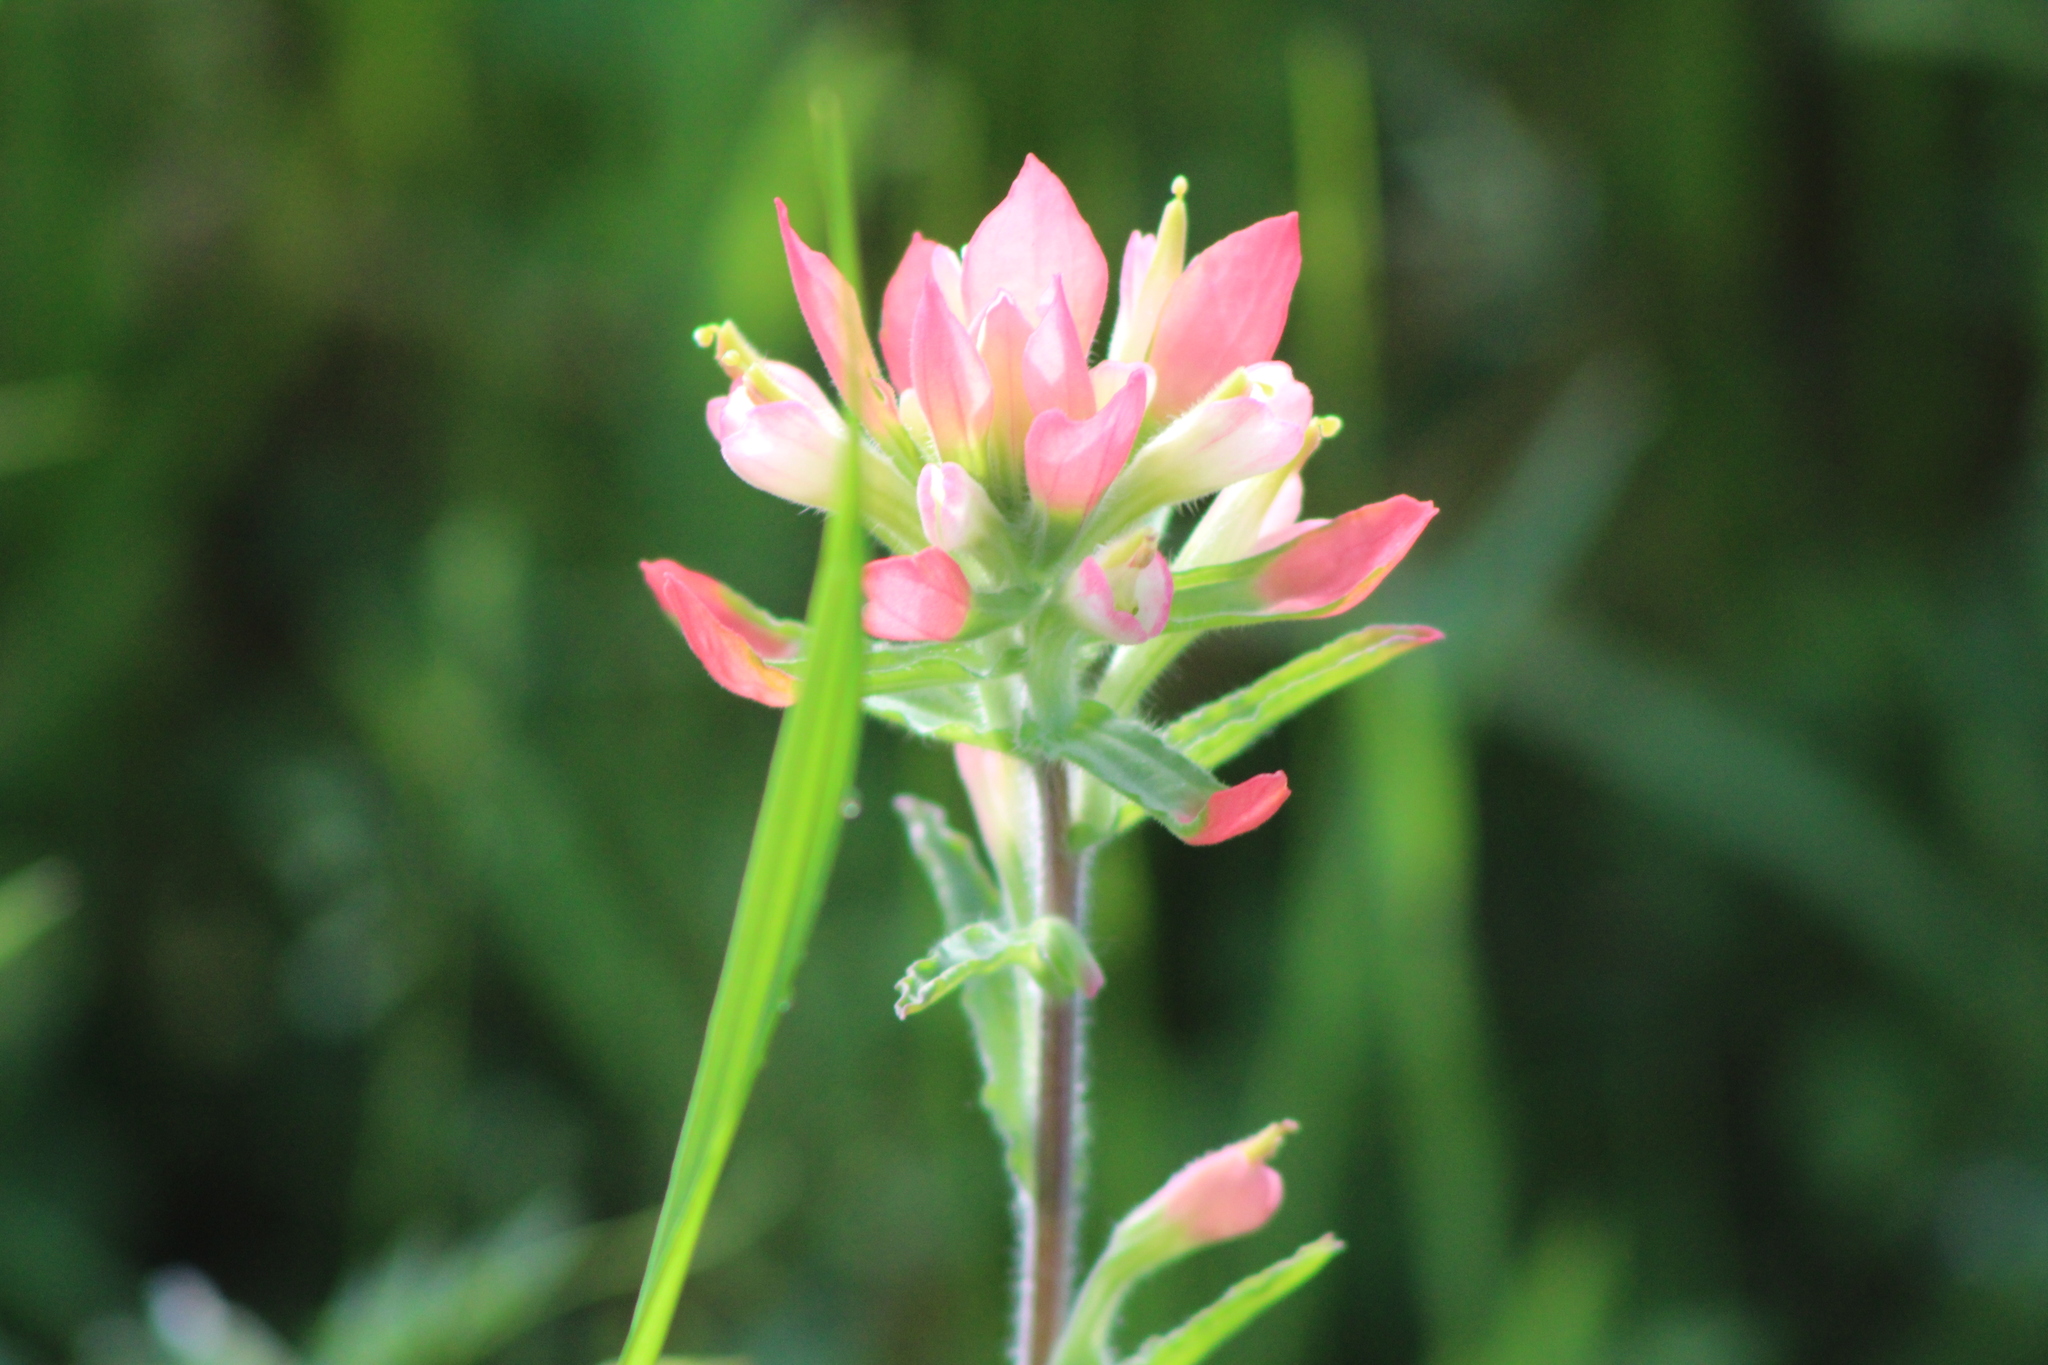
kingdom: Plantae
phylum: Tracheophyta
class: Magnoliopsida
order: Lamiales
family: Orobanchaceae
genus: Castilleja
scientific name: Castilleja indivisa
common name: Texas paintbrush
